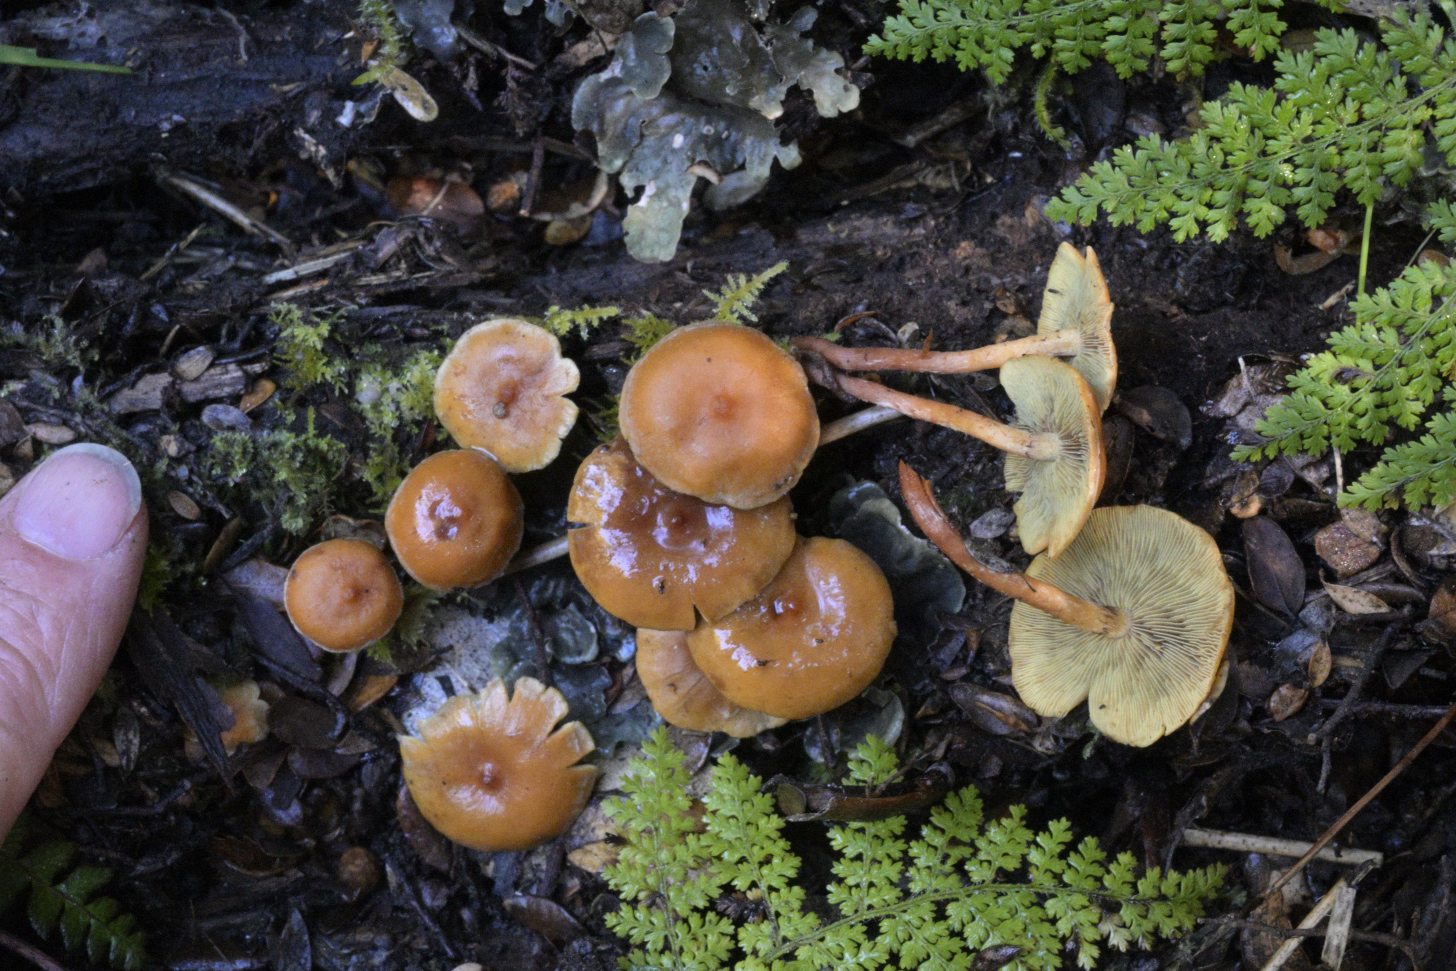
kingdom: Fungi
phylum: Basidiomycota
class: Agaricomycetes
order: Agaricales
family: Strophariaceae
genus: Hypholoma
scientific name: Hypholoma acutum
